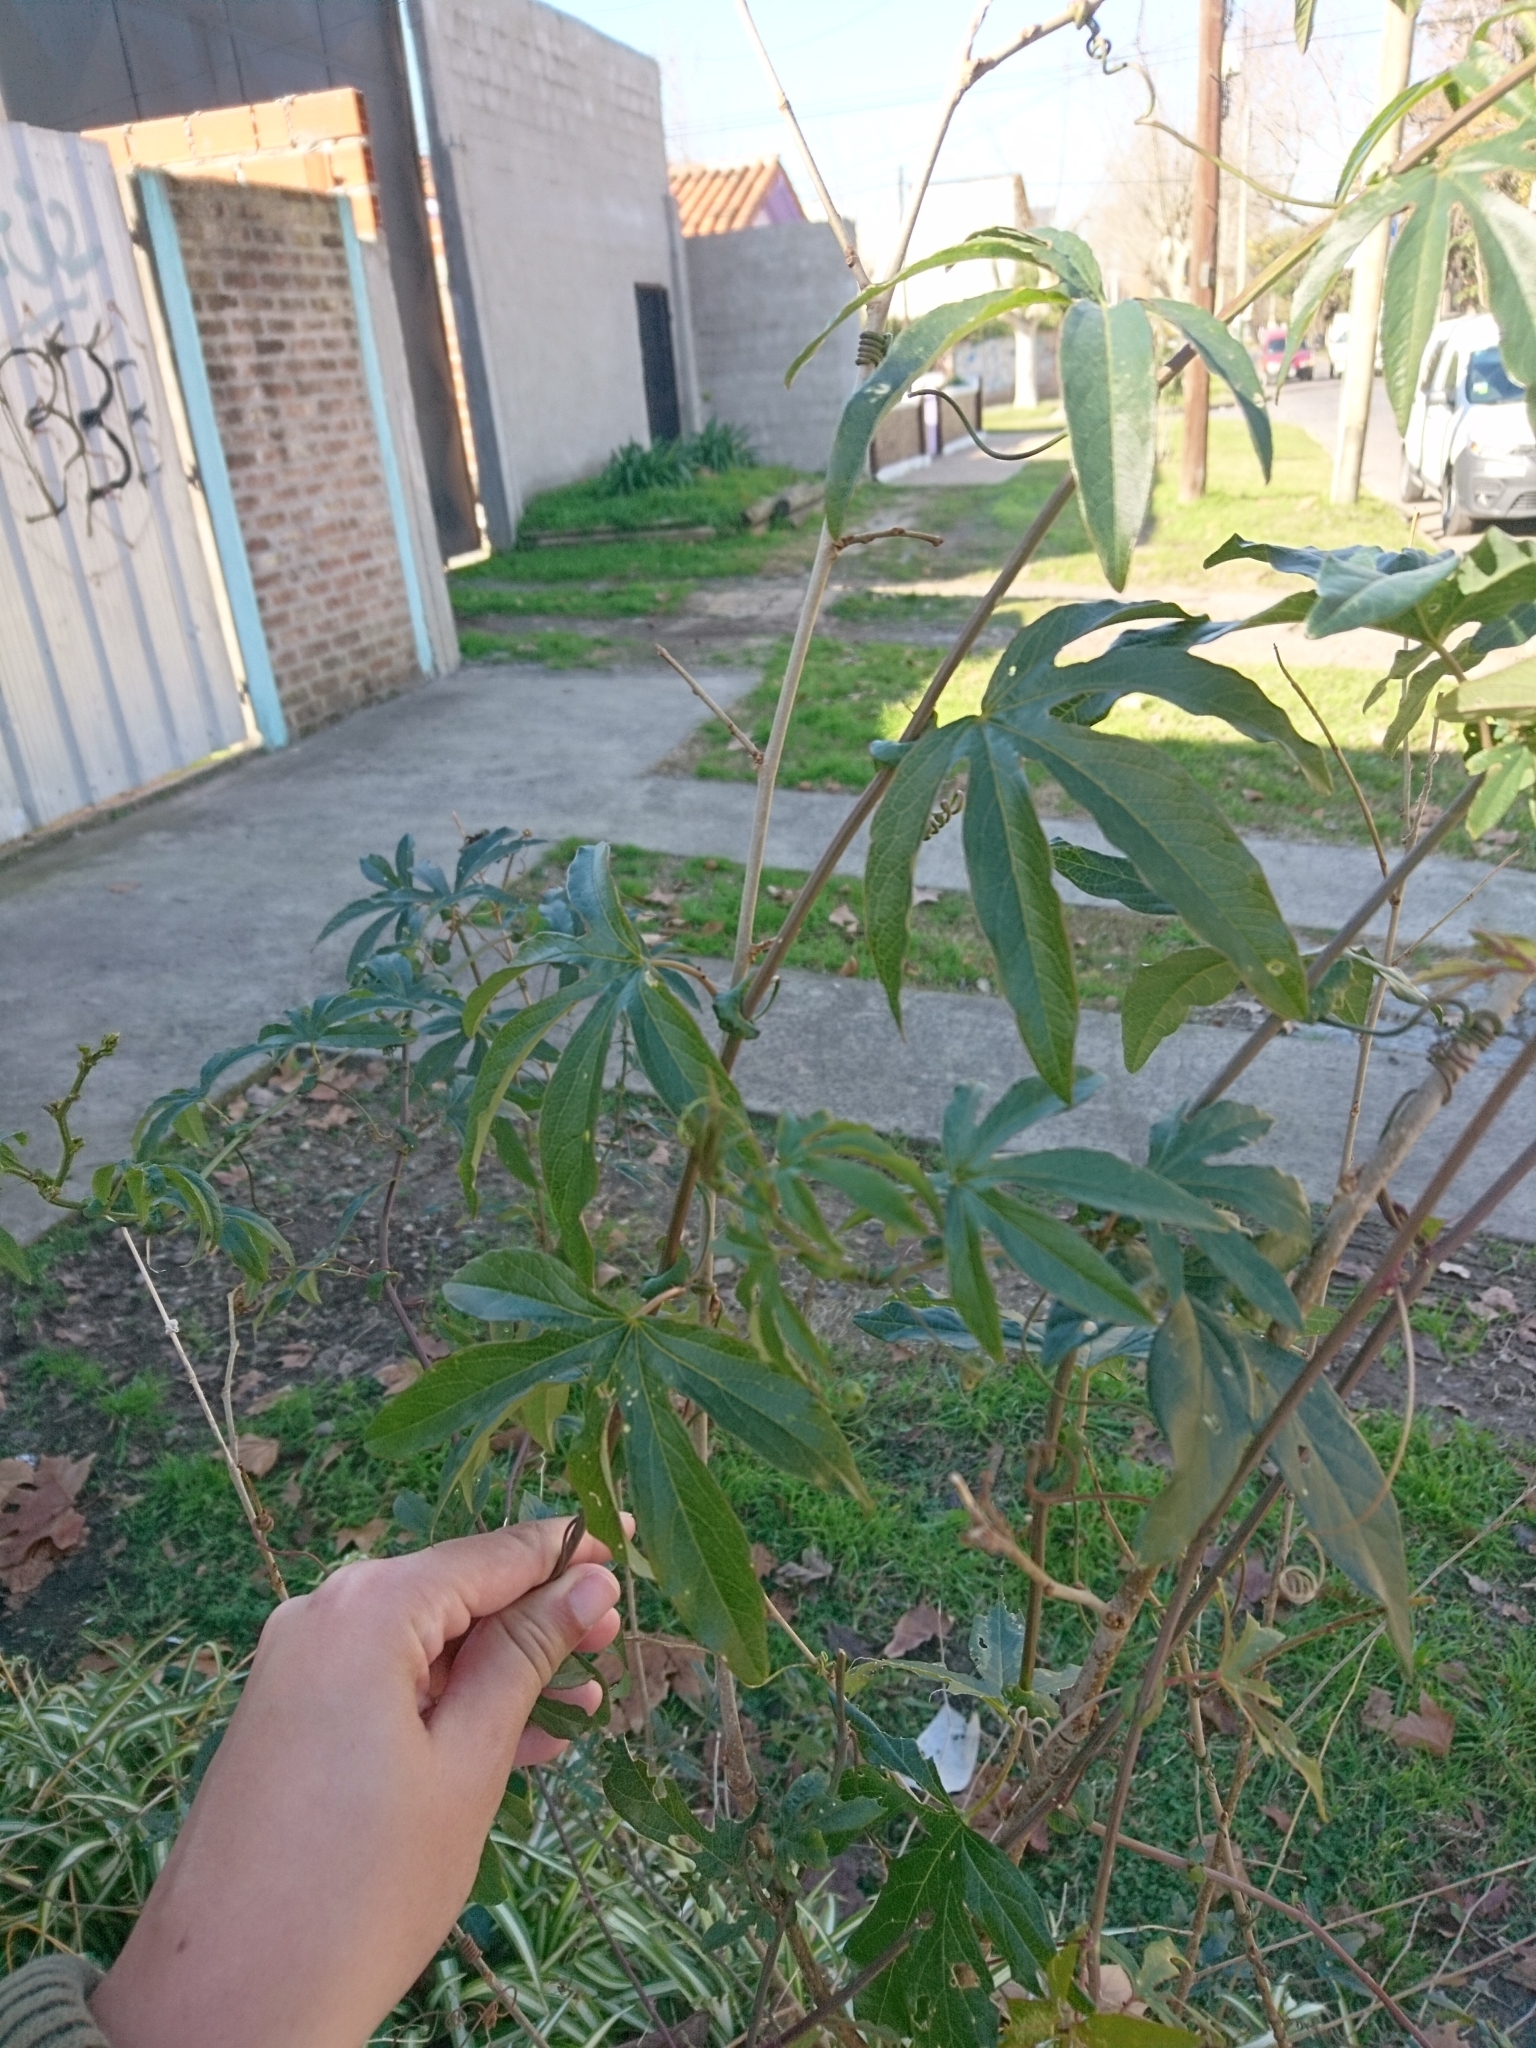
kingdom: Plantae
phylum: Tracheophyta
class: Magnoliopsida
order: Malpighiales
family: Passifloraceae
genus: Passiflora
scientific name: Passiflora caerulea
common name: Blue passionflower
